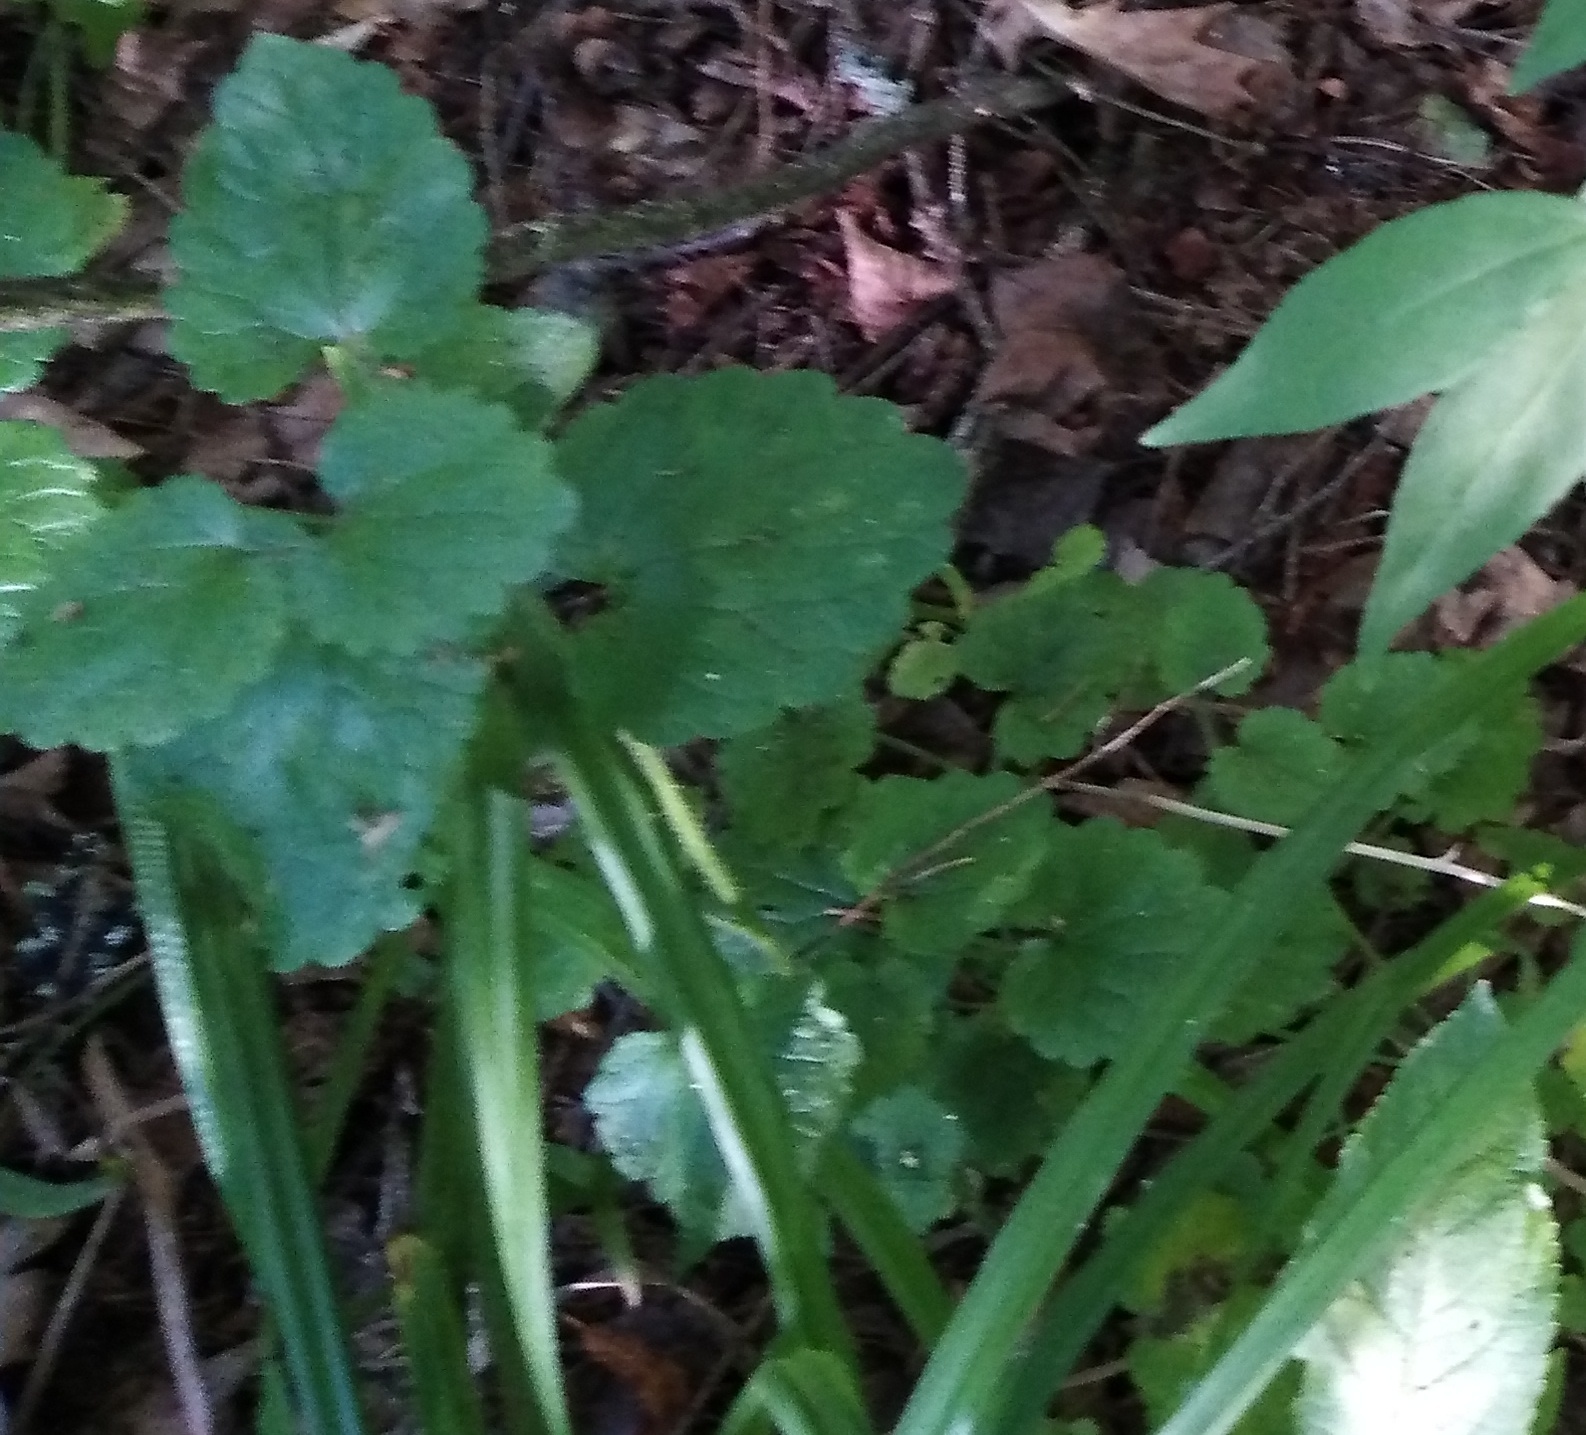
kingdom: Plantae
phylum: Tracheophyta
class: Magnoliopsida
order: Lamiales
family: Lamiaceae
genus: Glechoma
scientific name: Glechoma hederacea
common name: Ground ivy
